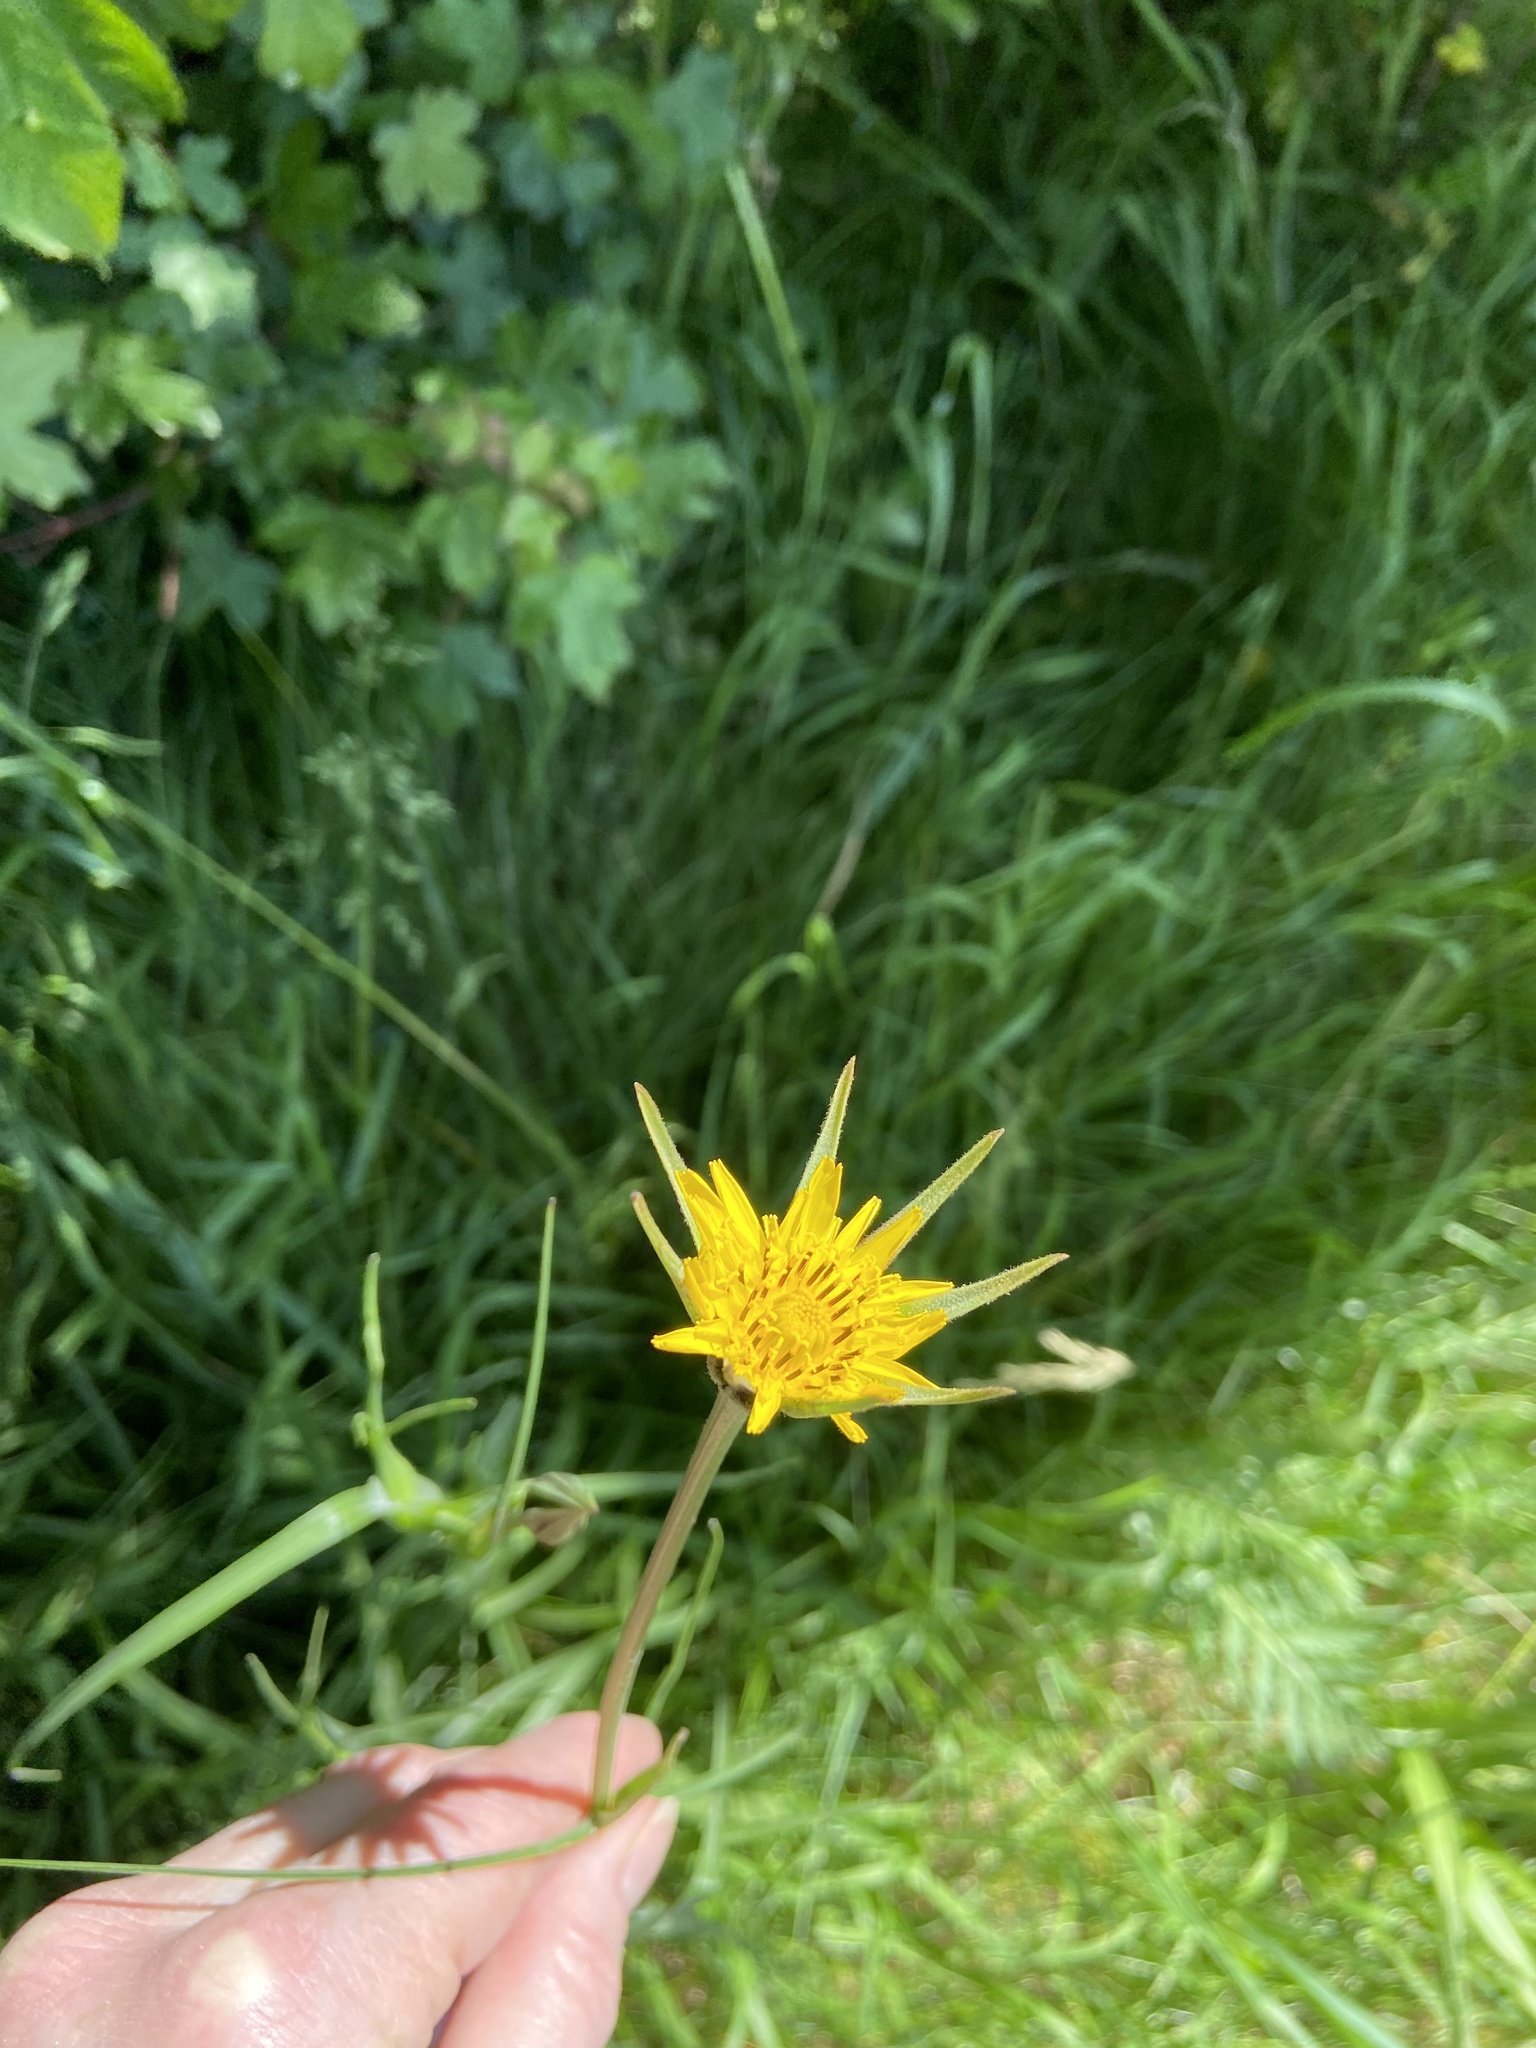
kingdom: Plantae
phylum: Tracheophyta
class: Magnoliopsida
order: Asterales
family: Asteraceae
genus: Tragopogon
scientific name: Tragopogon minor
